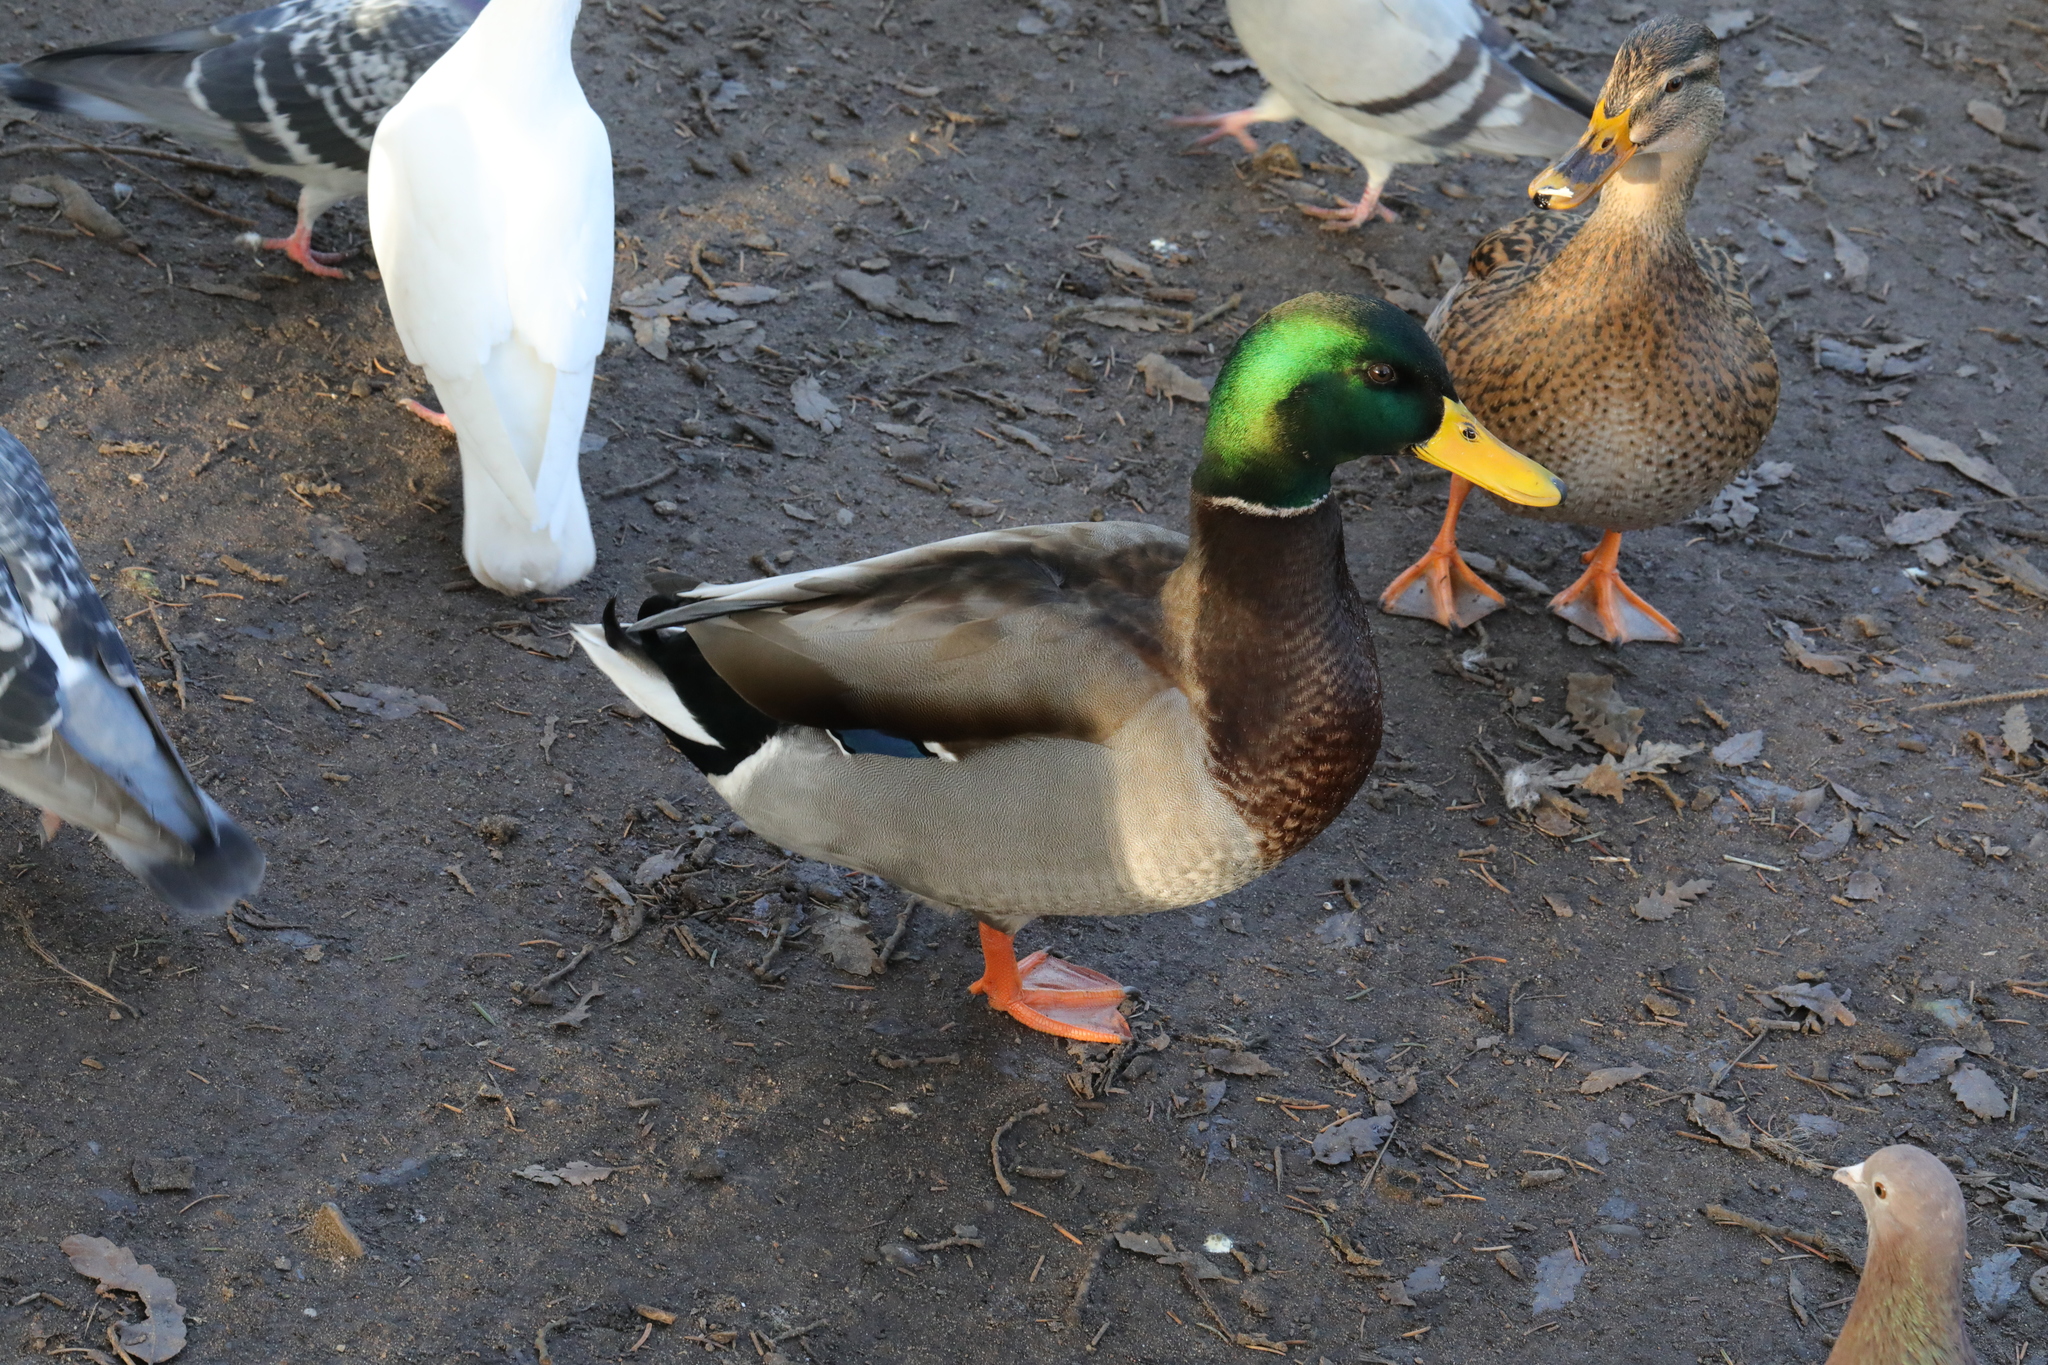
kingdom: Animalia
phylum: Chordata
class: Aves
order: Anseriformes
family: Anatidae
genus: Anas
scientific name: Anas platyrhynchos
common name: Mallard
